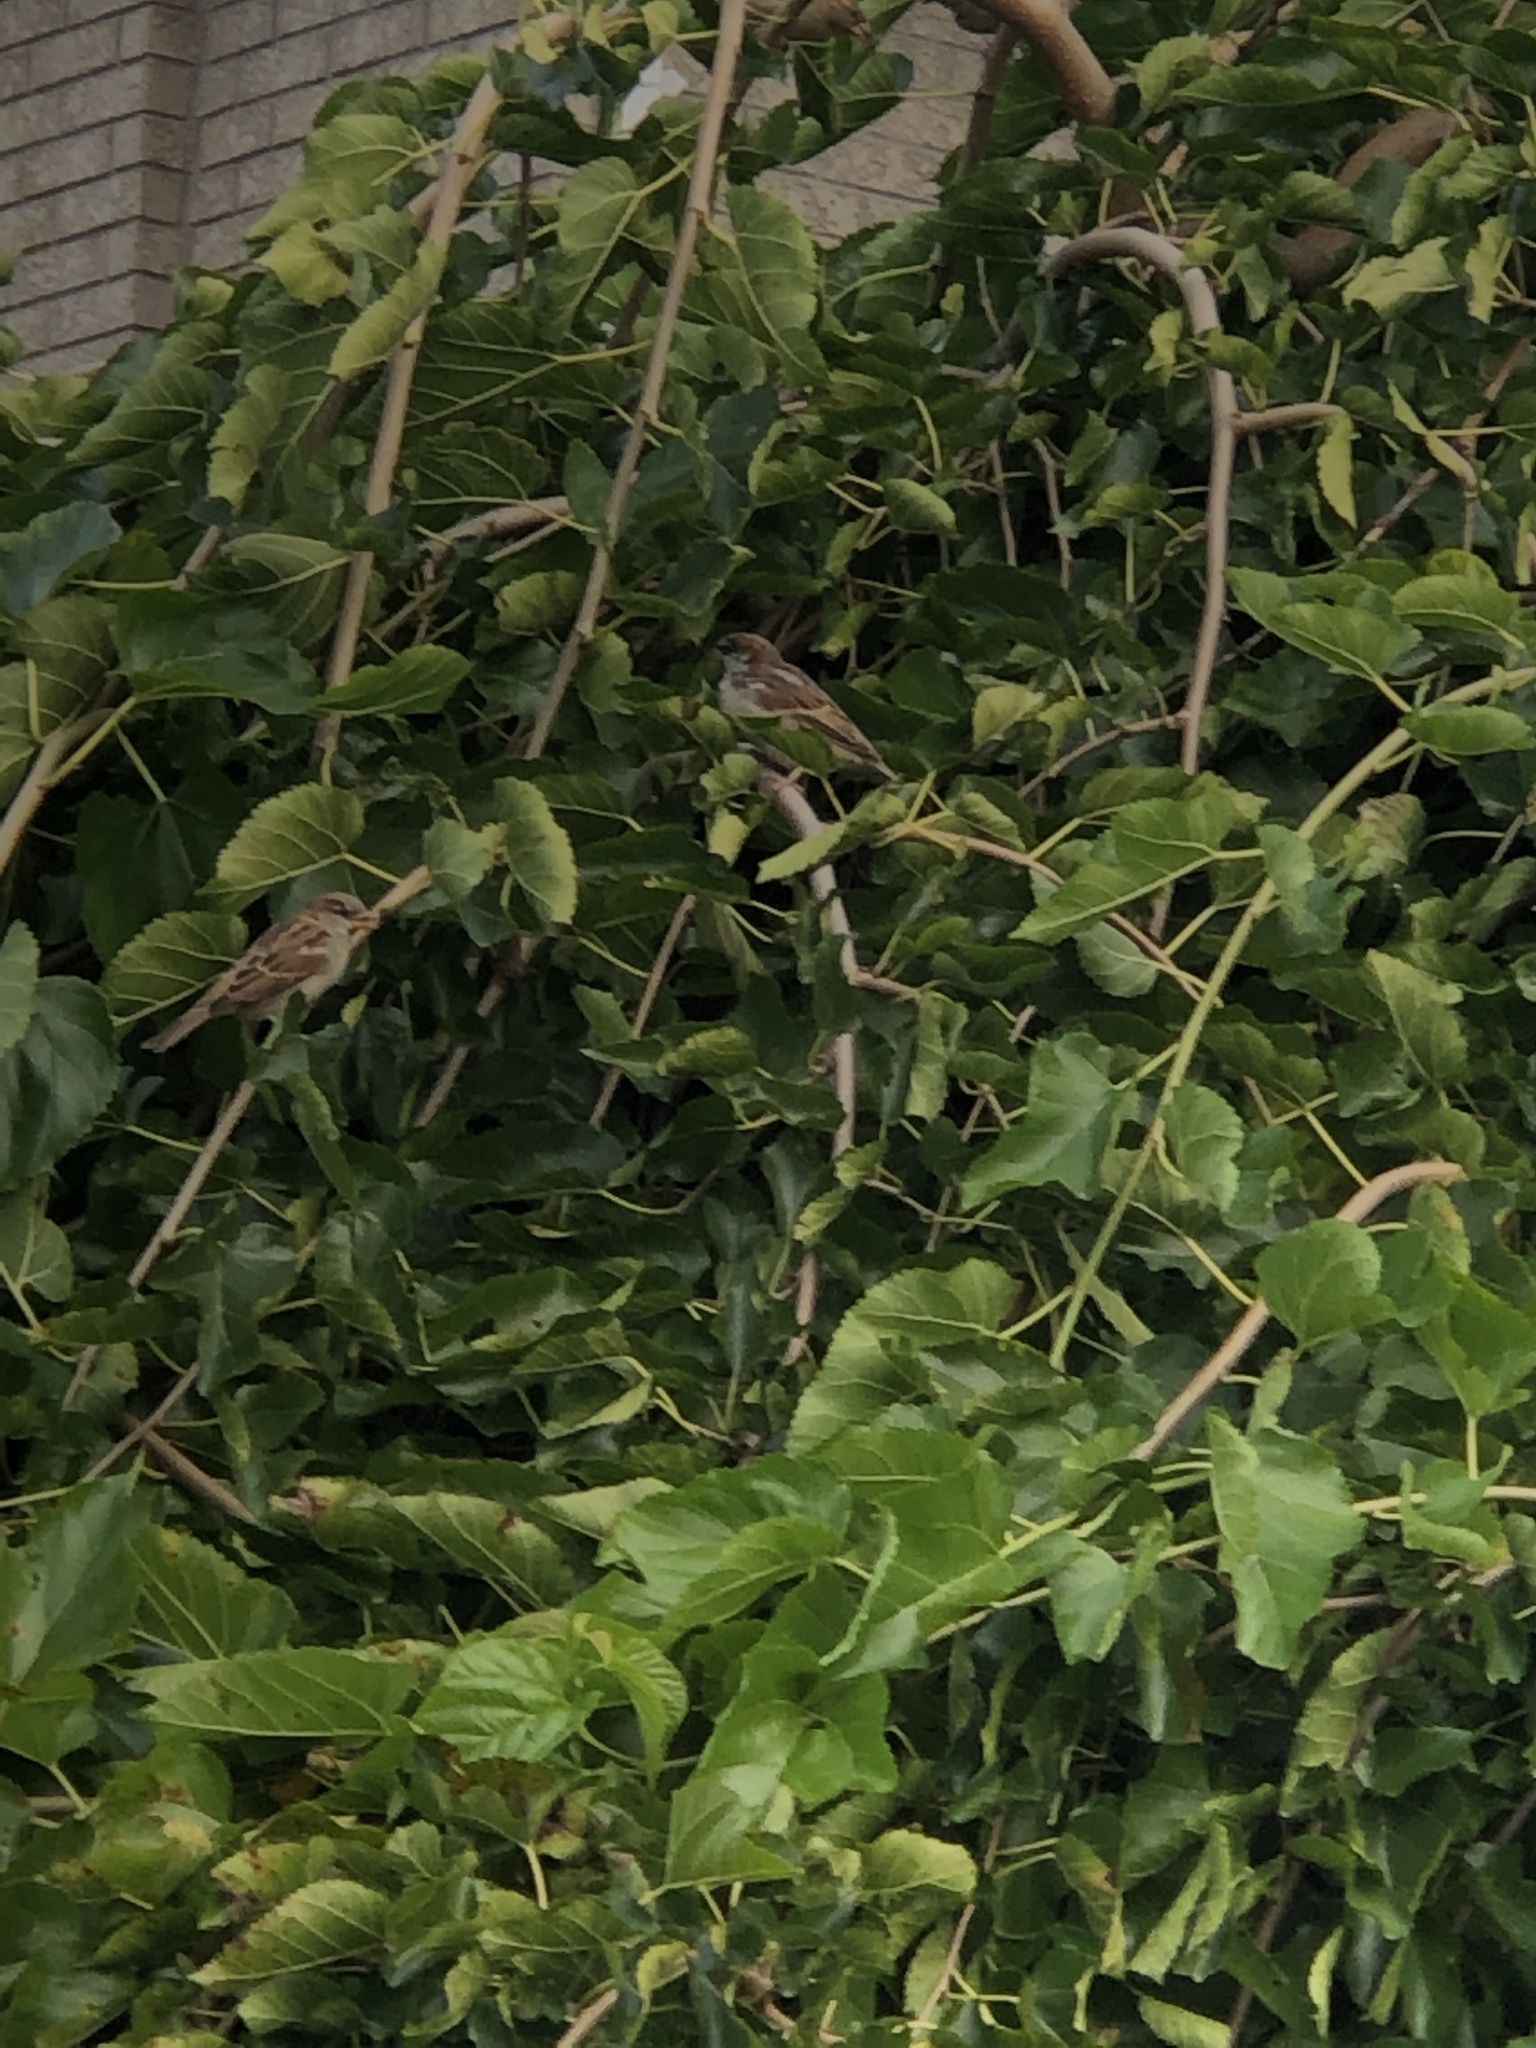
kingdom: Animalia
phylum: Chordata
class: Aves
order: Passeriformes
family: Passeridae
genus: Passer
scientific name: Passer domesticus
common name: House sparrow
